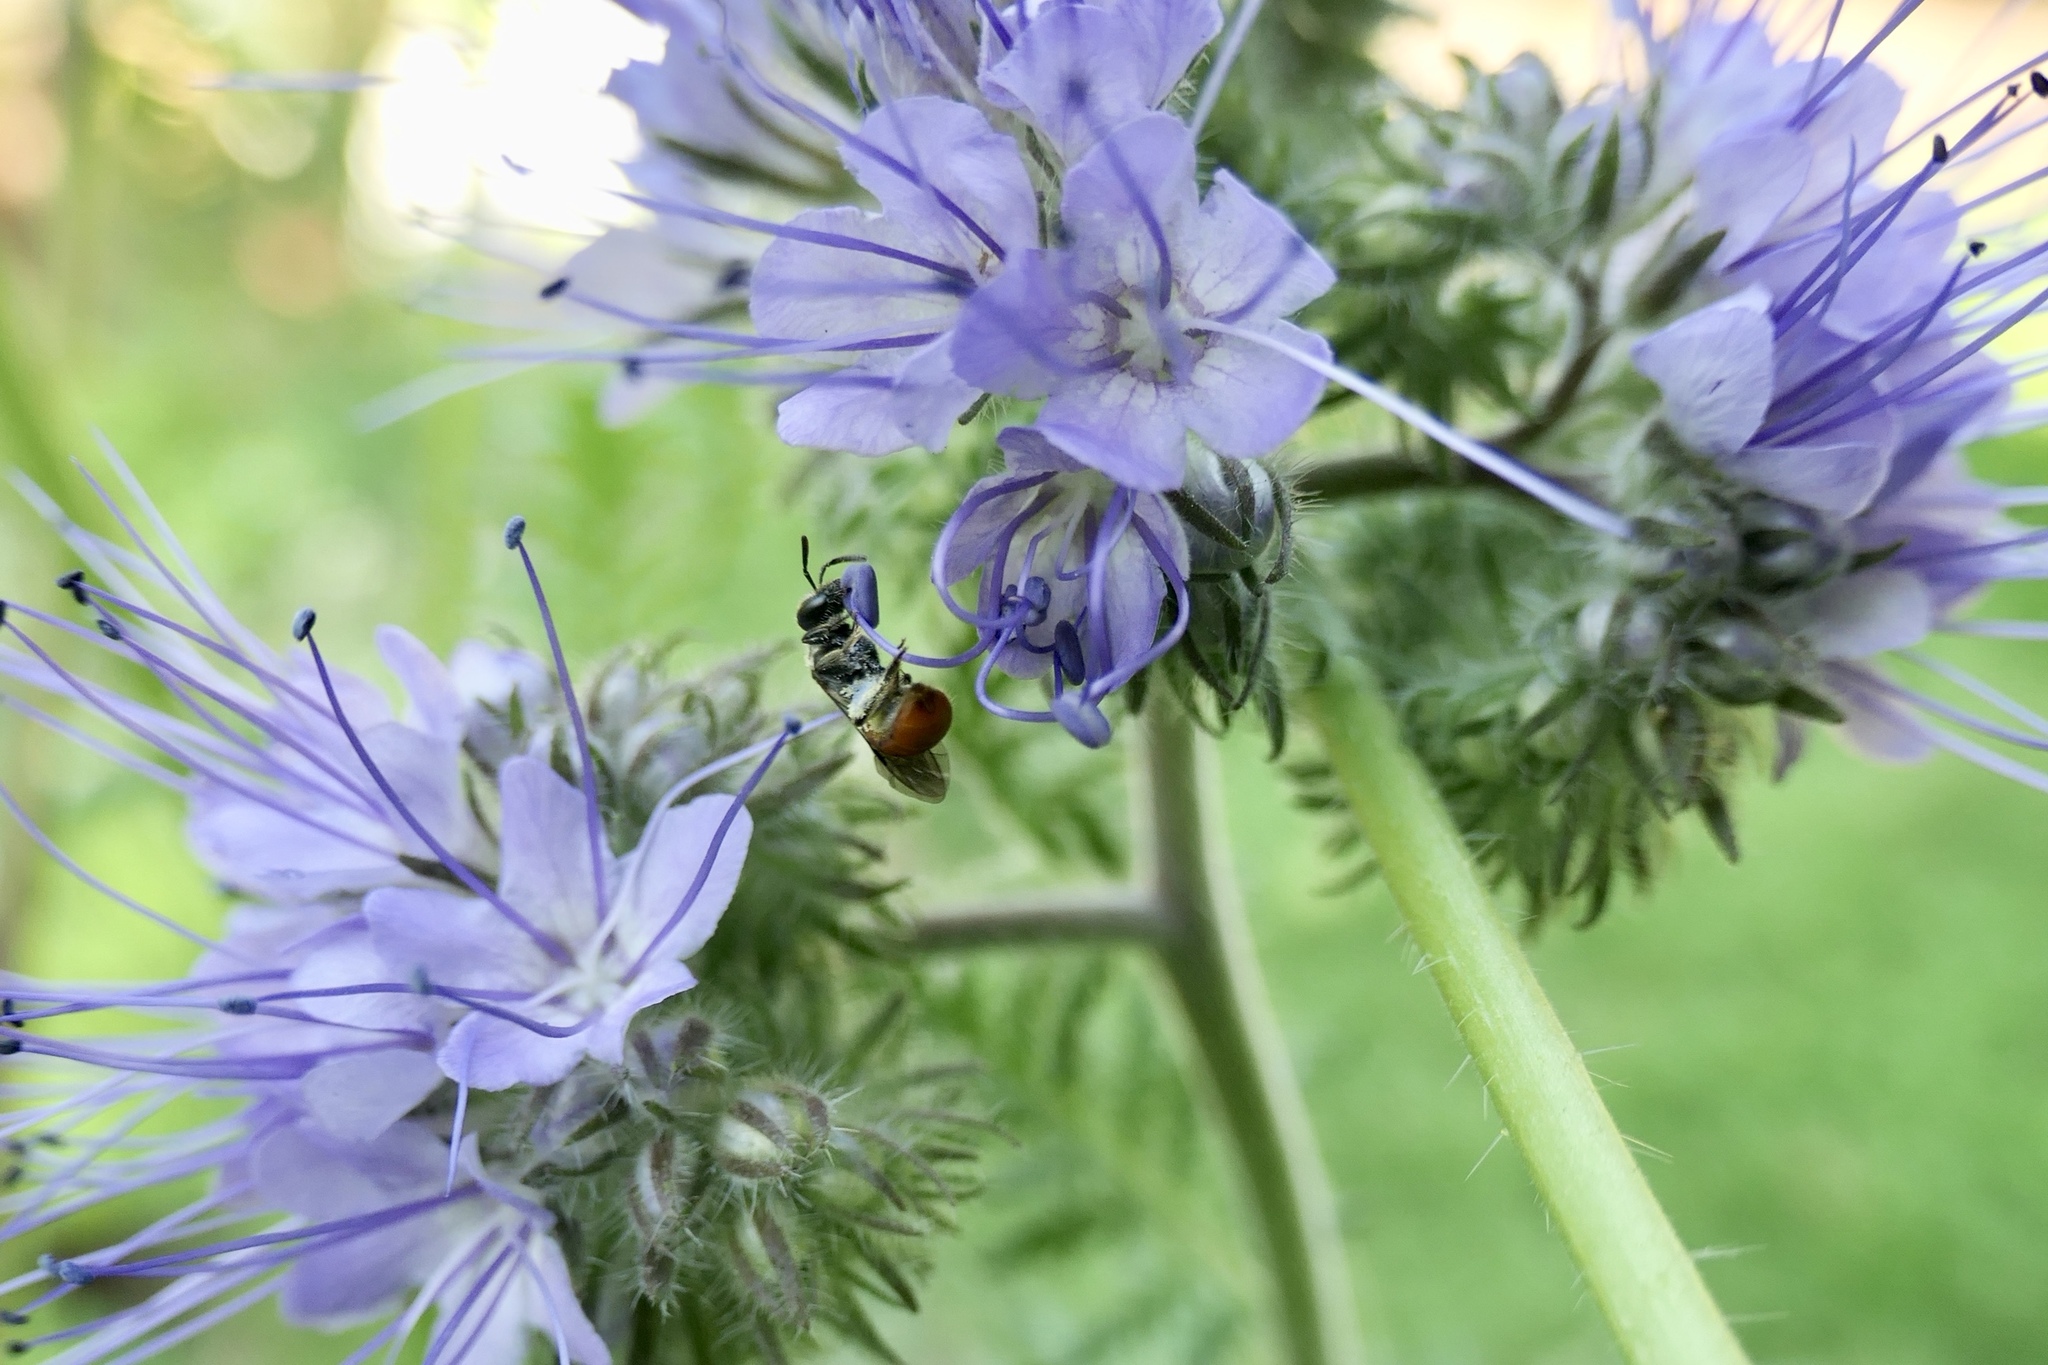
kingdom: Animalia
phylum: Arthropoda
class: Insecta
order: Hymenoptera
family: Halictidae
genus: Lasioglossum
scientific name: Lasioglossum ovaliceps
